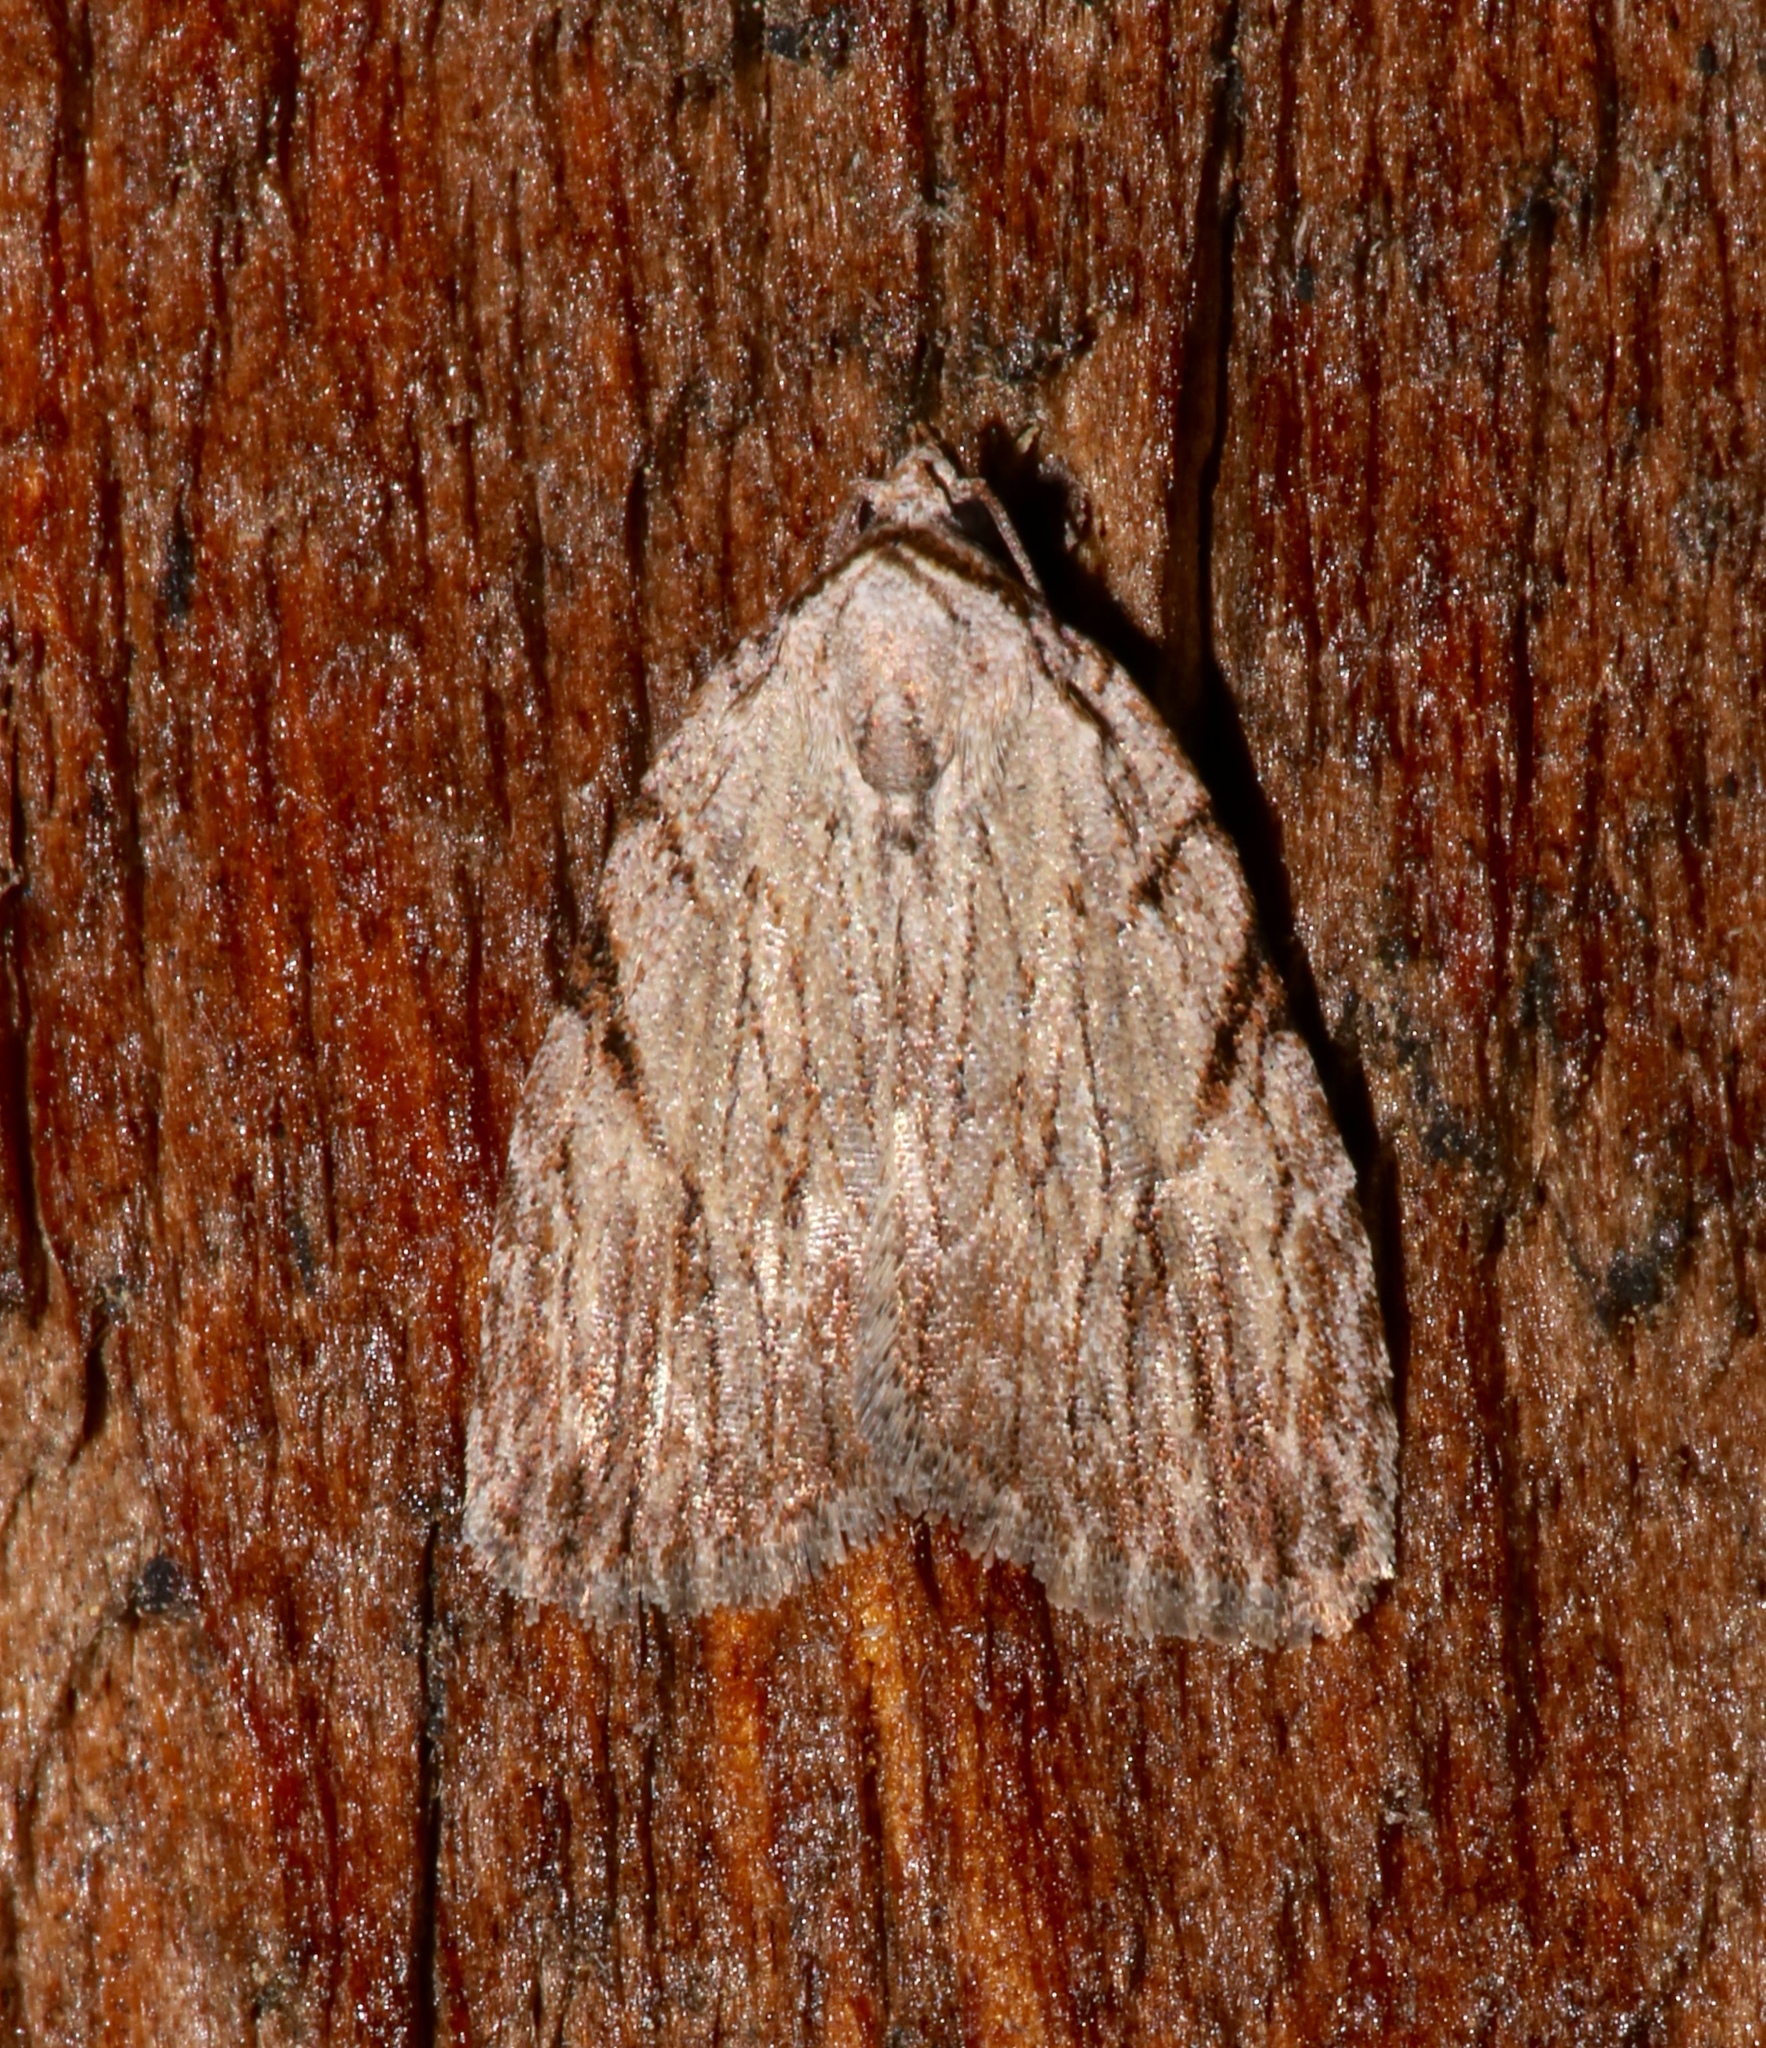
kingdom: Animalia
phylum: Arthropoda
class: Insecta
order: Lepidoptera
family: Noctuidae
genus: Balsa
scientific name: Balsa tristrigella
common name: Three-lined balsa moth
